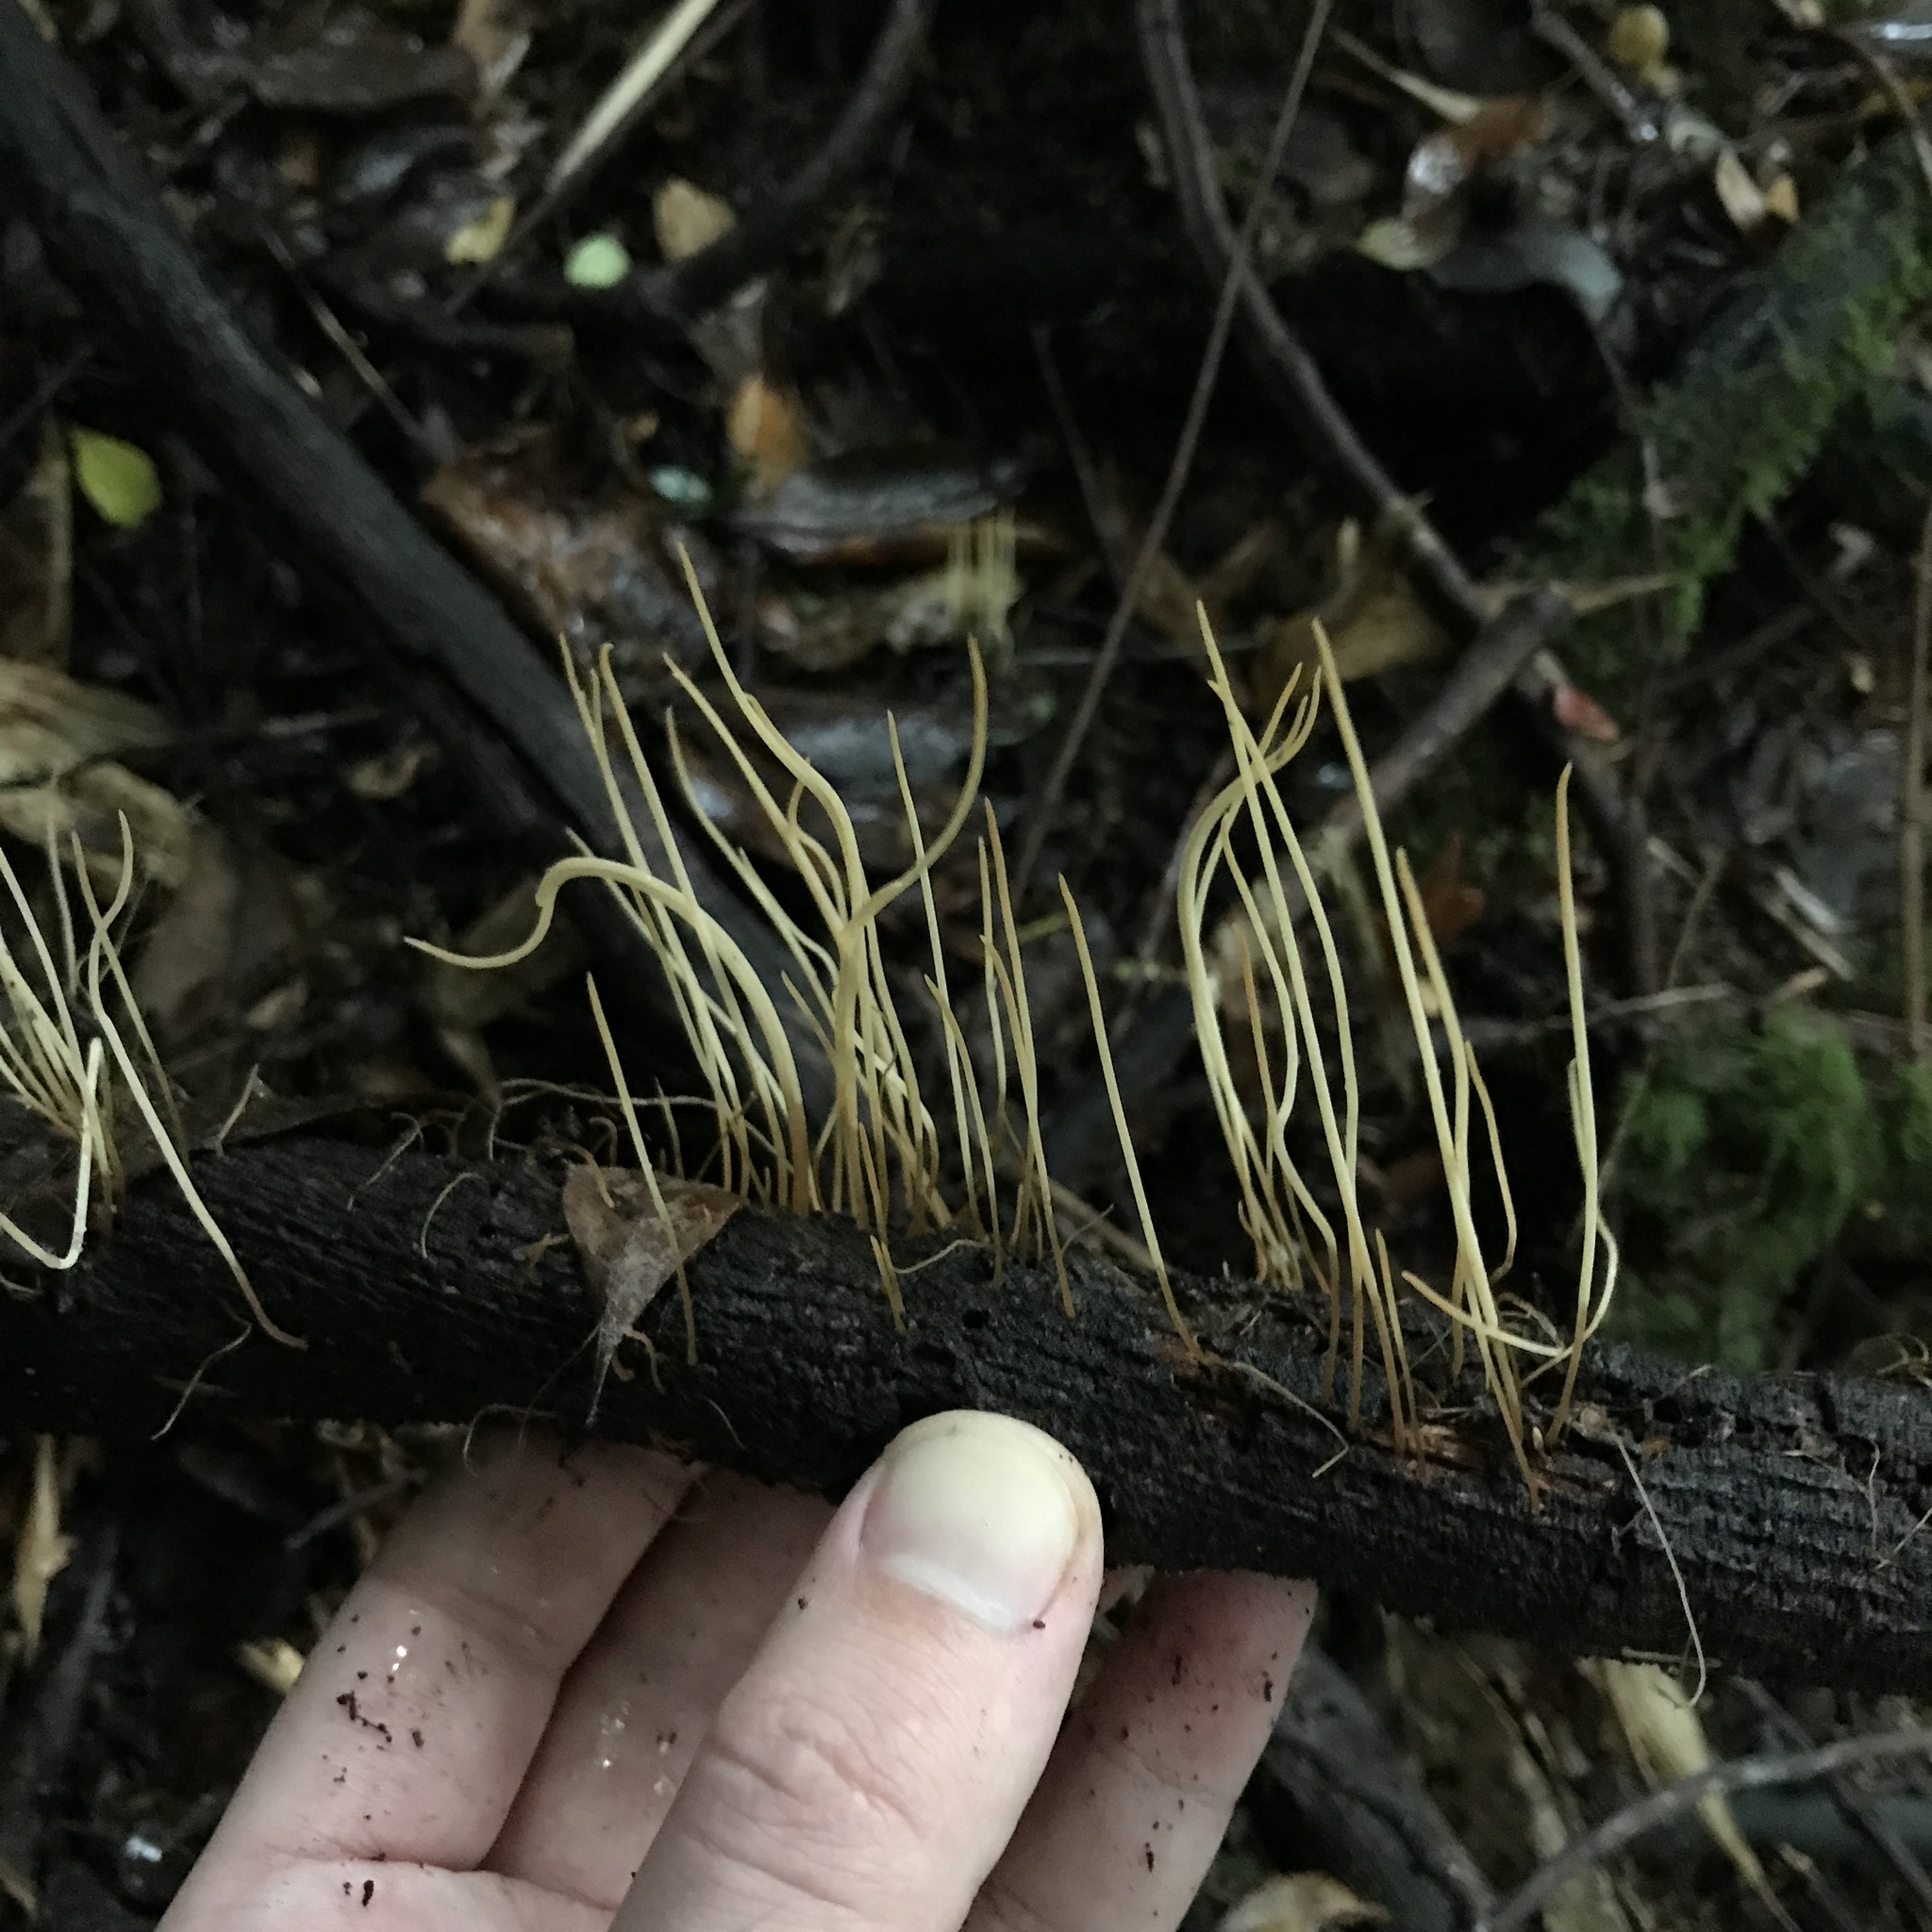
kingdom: Fungi
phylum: Basidiomycota
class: Agaricomycetes
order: Agaricales
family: Typhulaceae
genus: Typhula
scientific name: Typhula juncea
